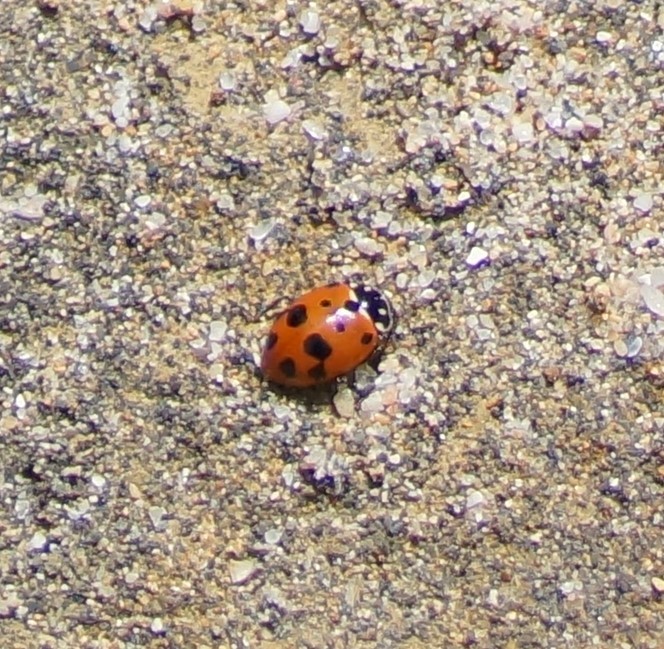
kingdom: Animalia
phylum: Arthropoda
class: Insecta
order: Coleoptera
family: Coccinellidae
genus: Hippodamia
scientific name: Hippodamia variegata
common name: Ladybird beetle
